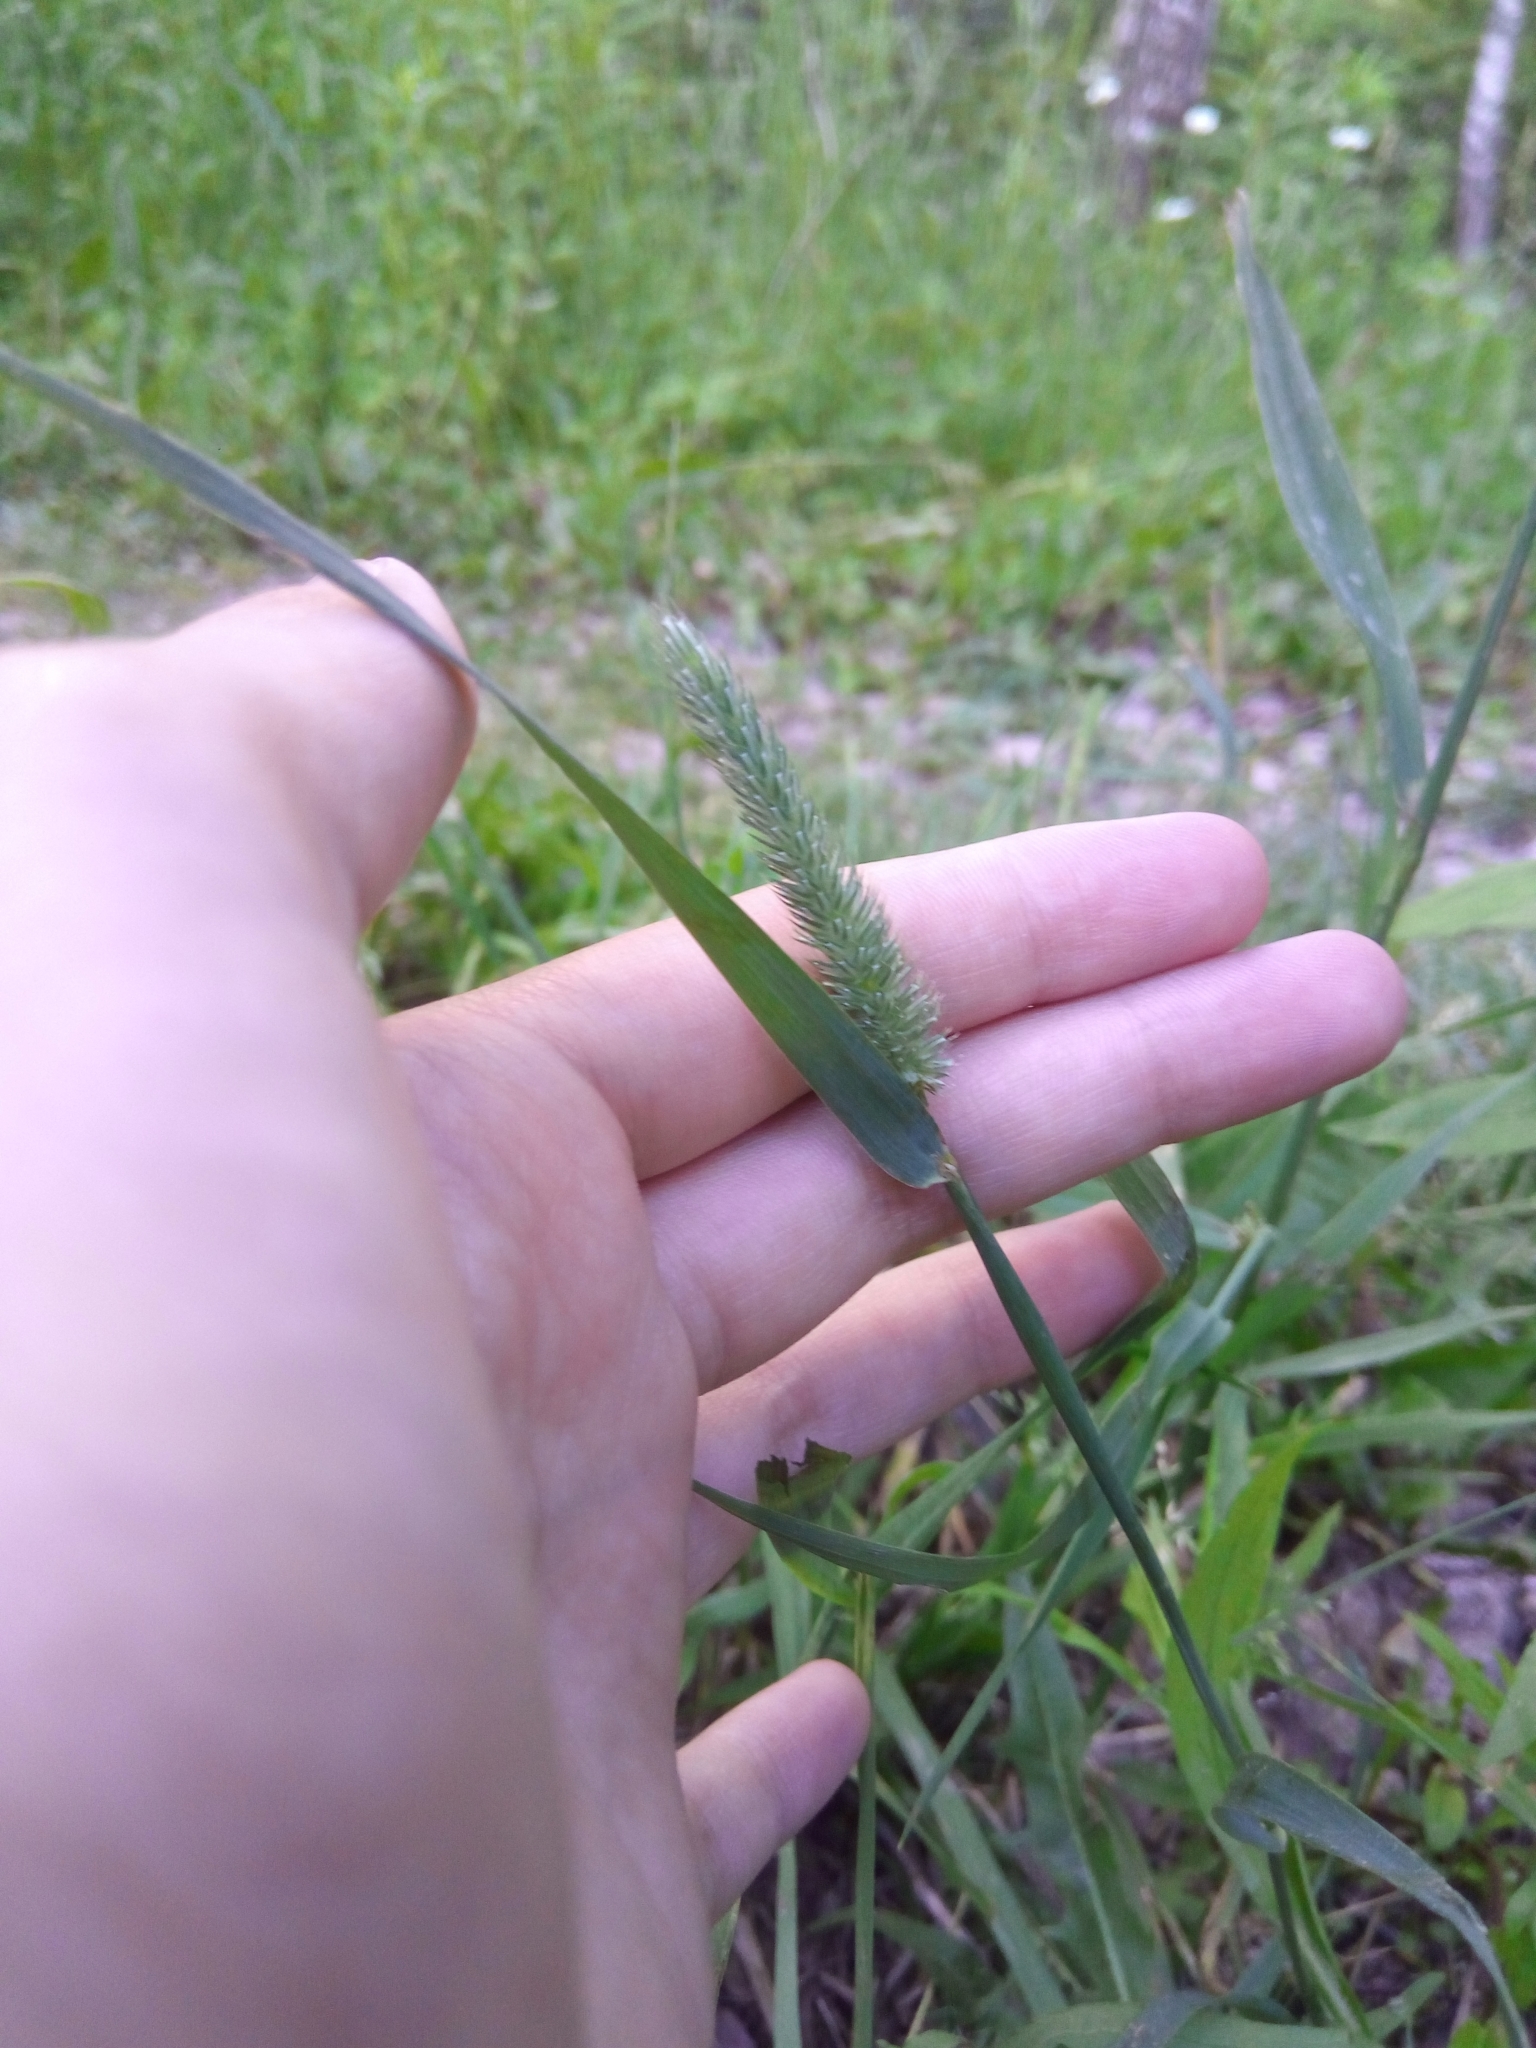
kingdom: Plantae
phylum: Tracheophyta
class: Liliopsida
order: Poales
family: Poaceae
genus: Phleum
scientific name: Phleum pratense
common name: Timothy grass
